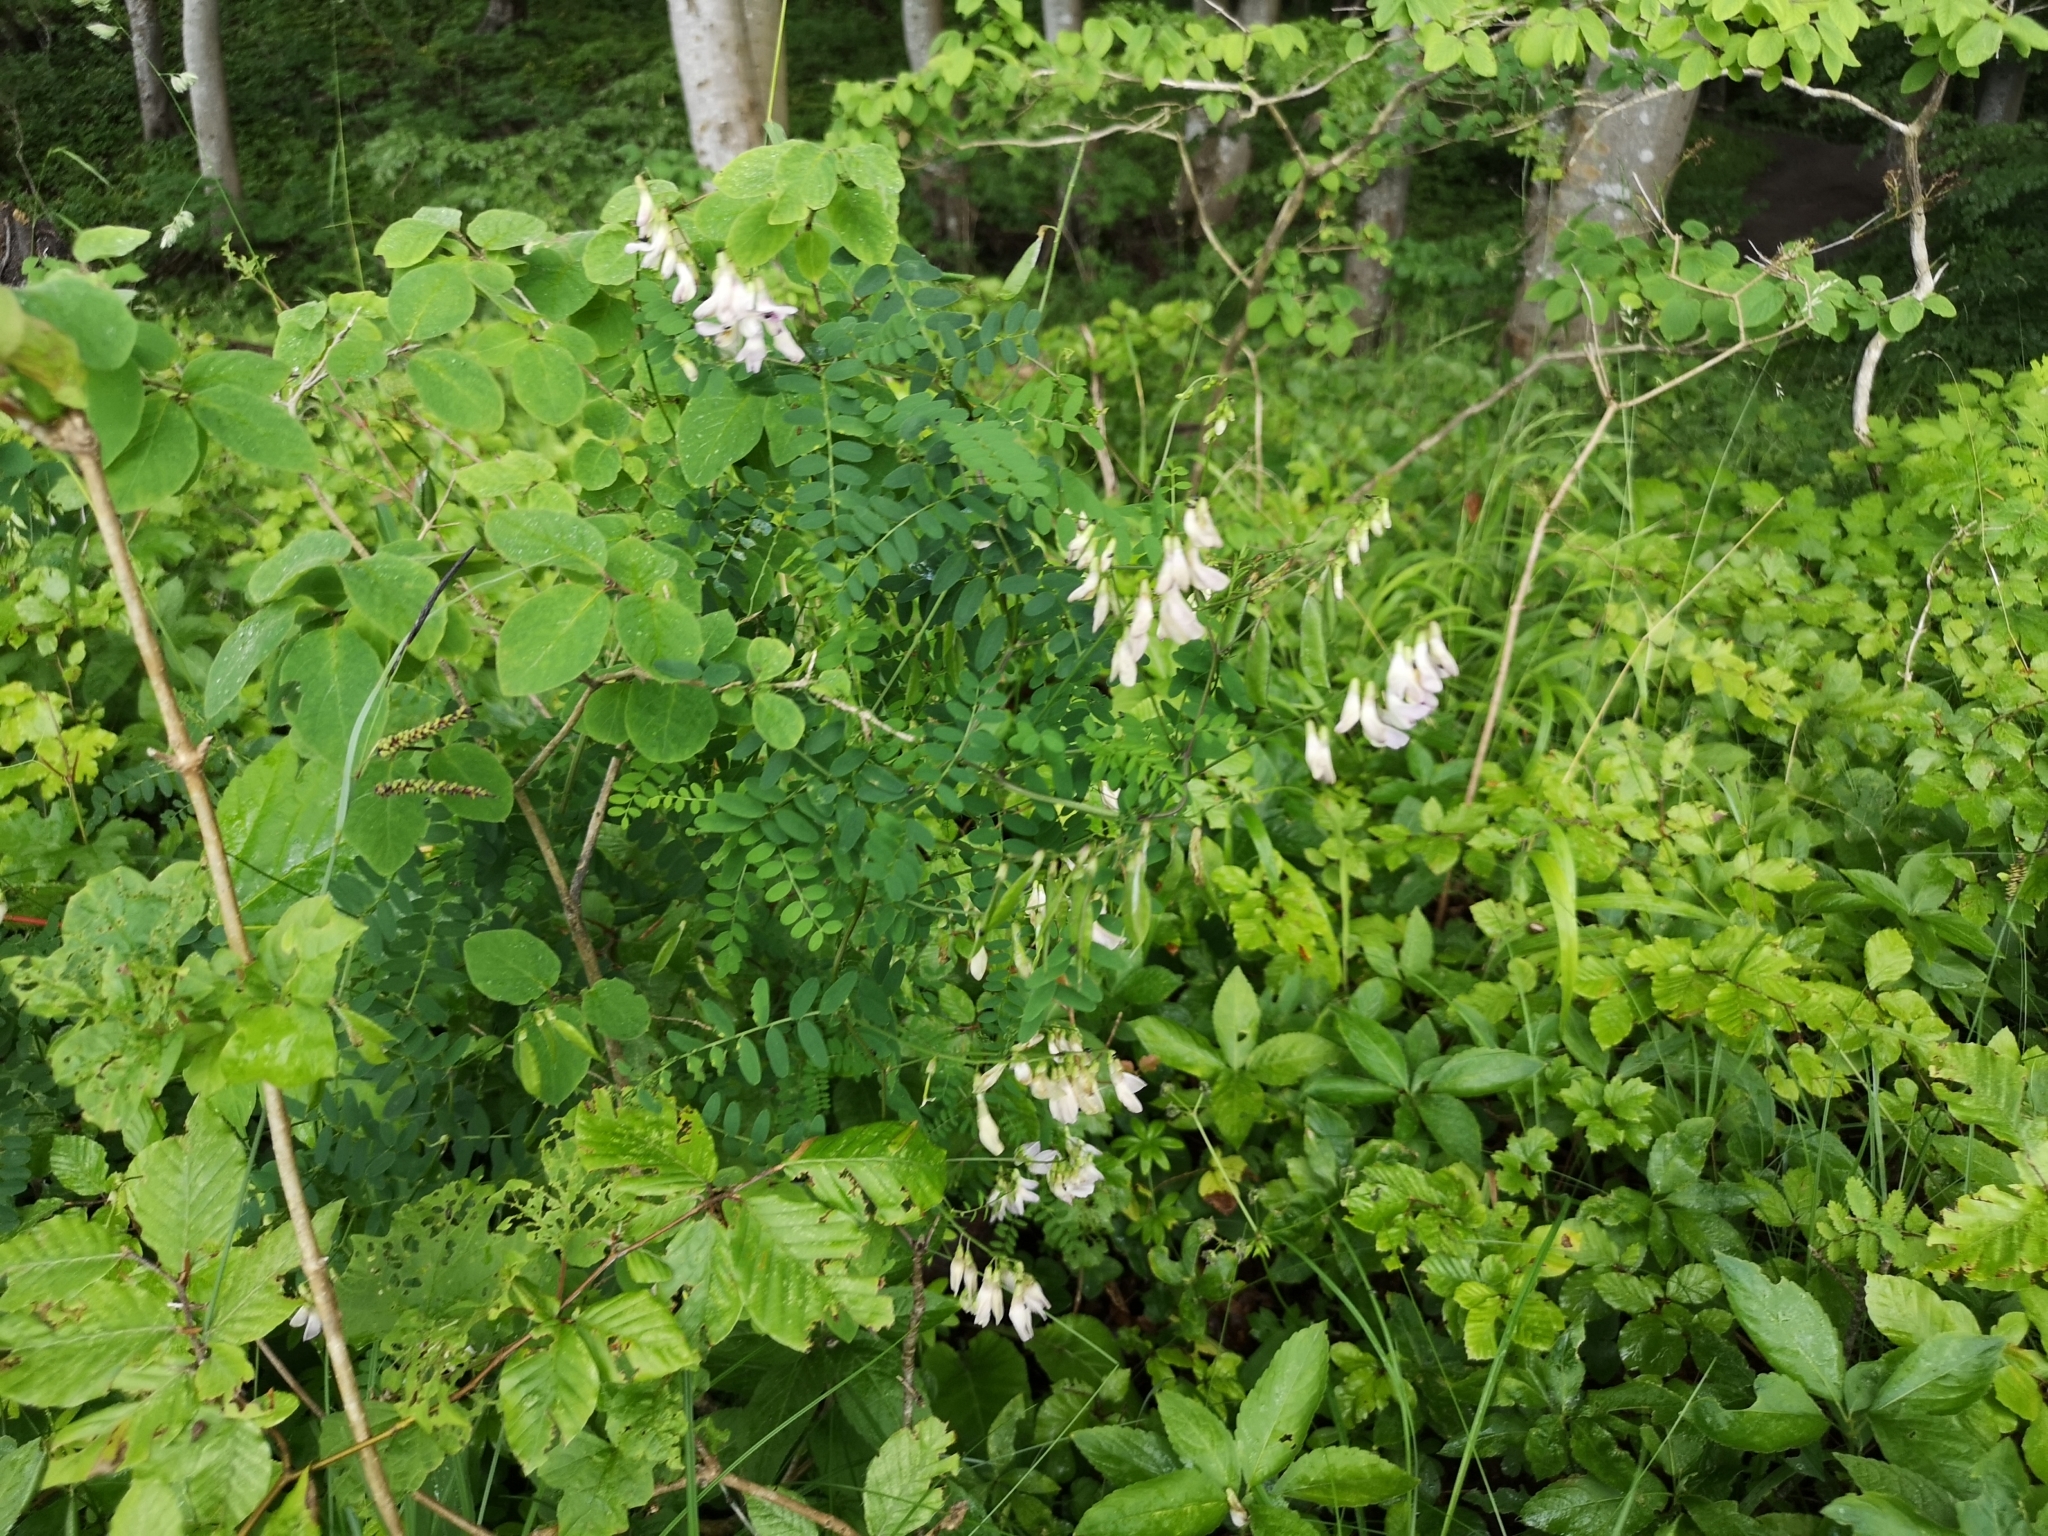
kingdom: Plantae
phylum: Tracheophyta
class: Magnoliopsida
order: Fabales
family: Fabaceae
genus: Vicia
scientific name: Vicia sylvatica
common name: Wood vetch
